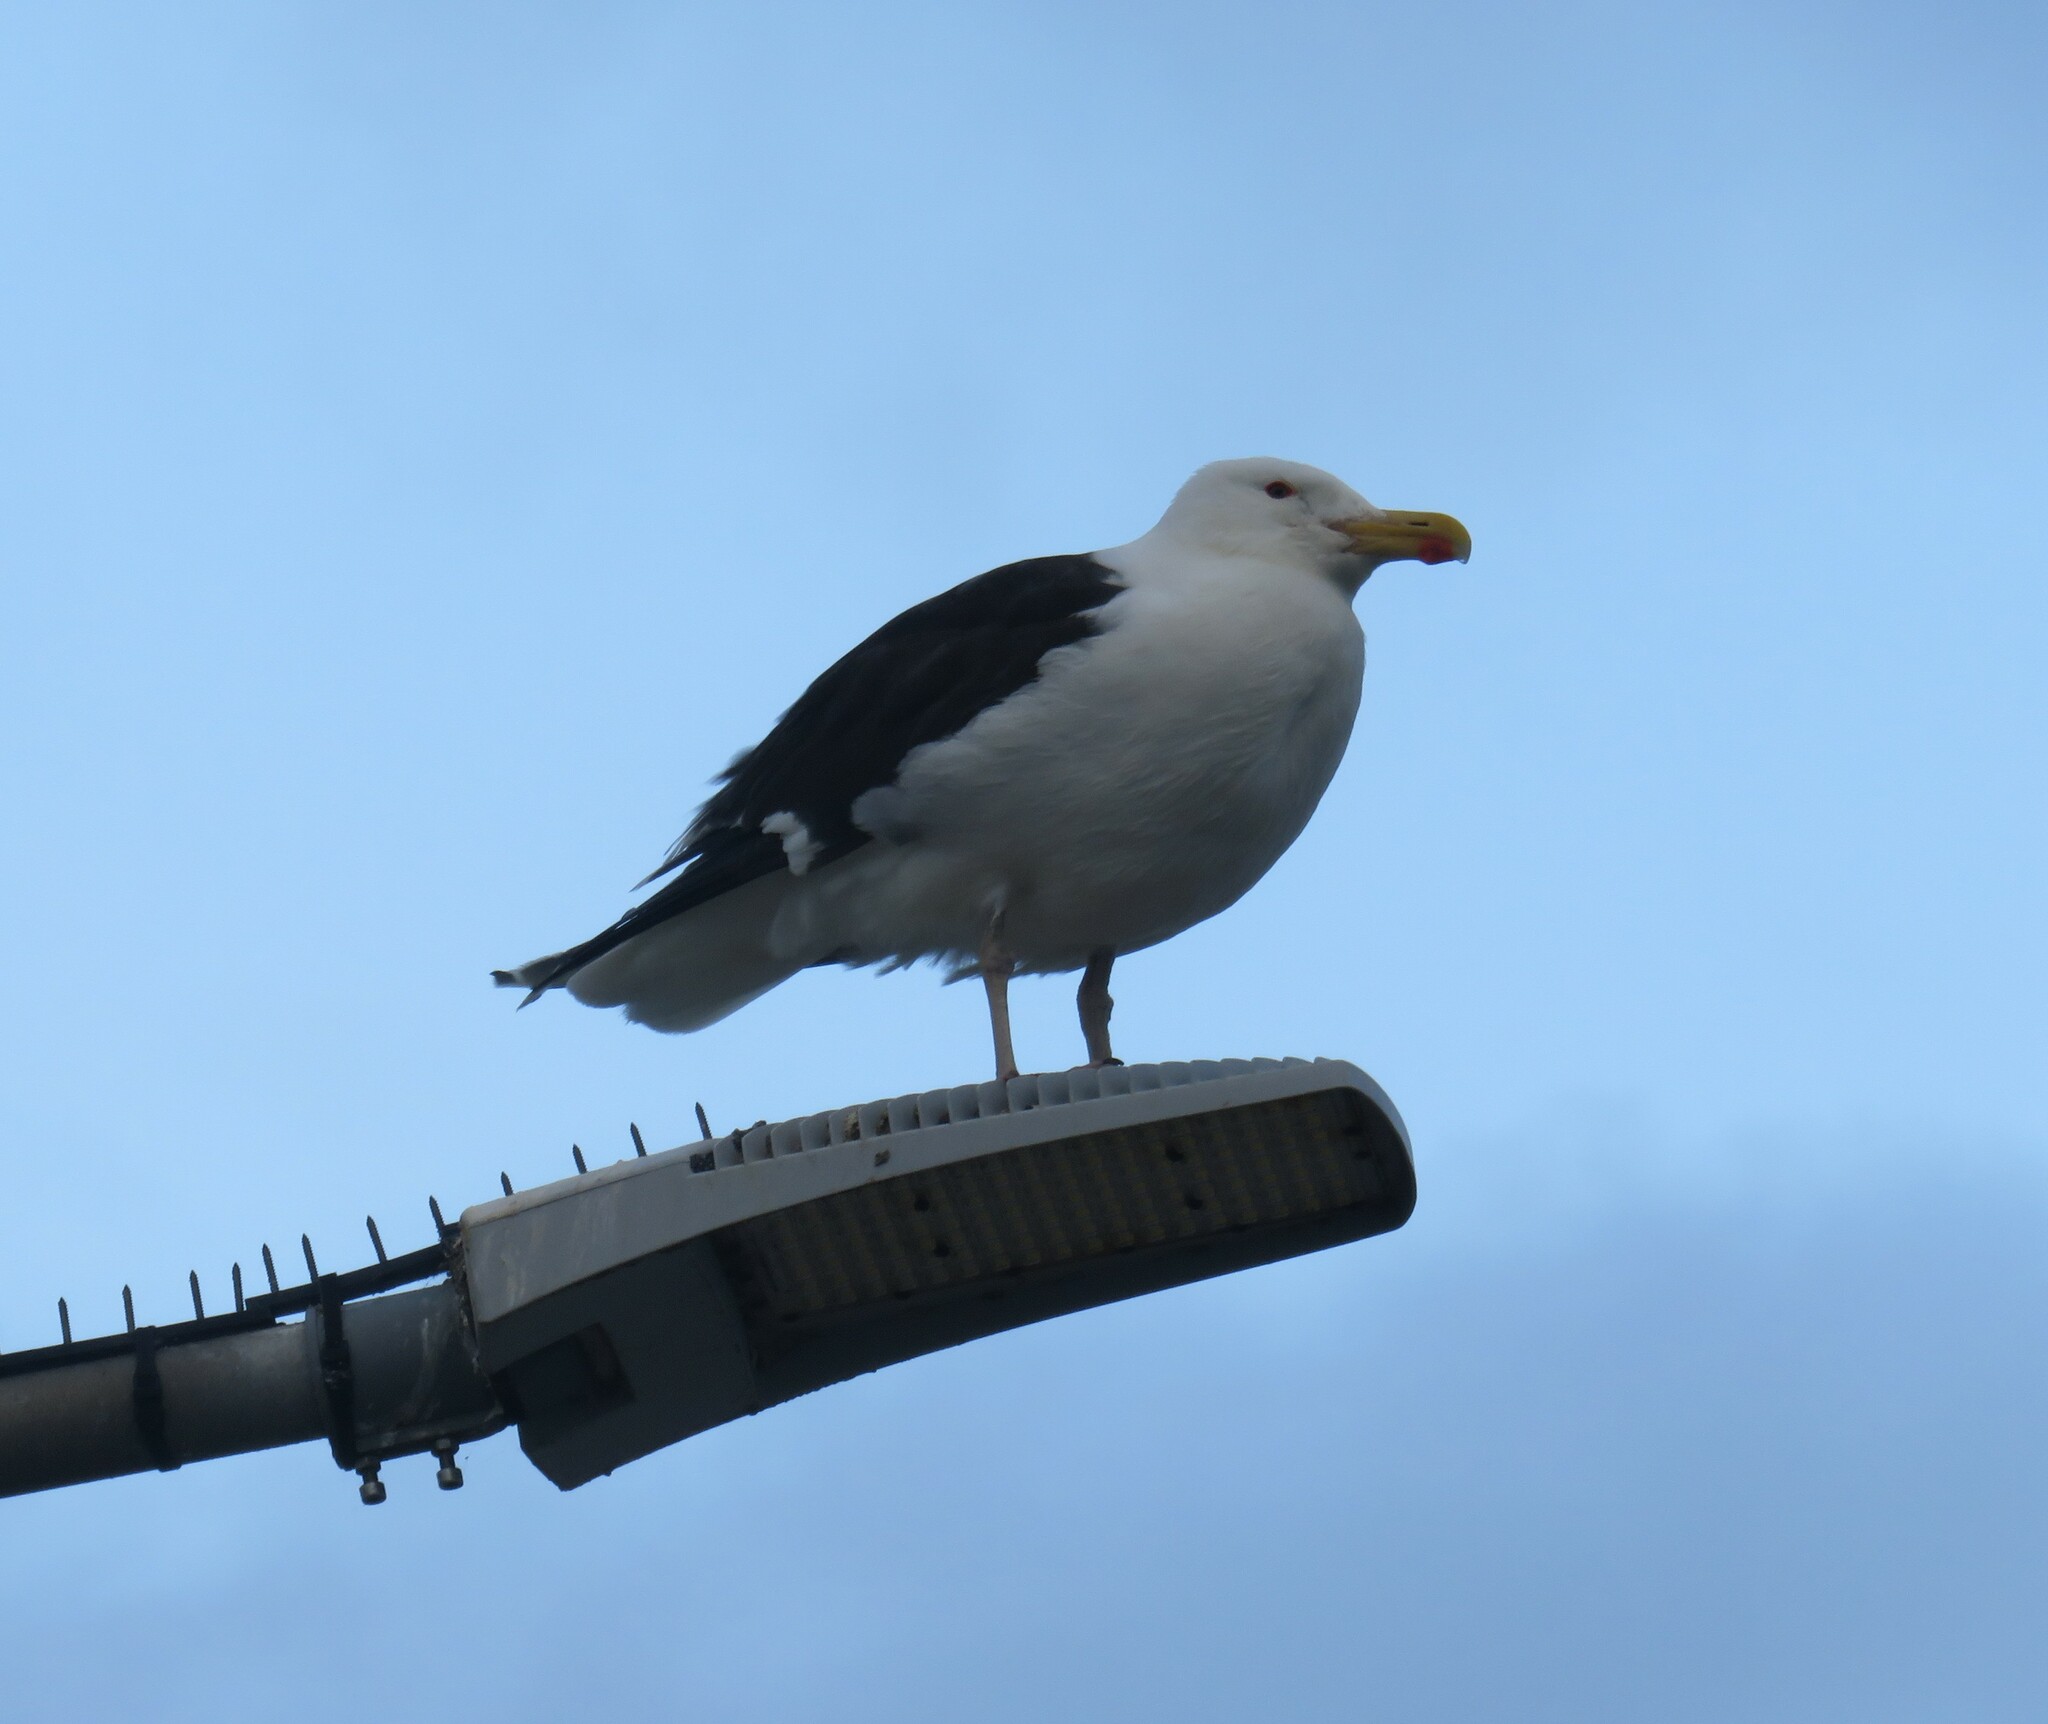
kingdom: Animalia
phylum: Chordata
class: Aves
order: Charadriiformes
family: Laridae
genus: Larus
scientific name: Larus marinus
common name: Great black-backed gull
